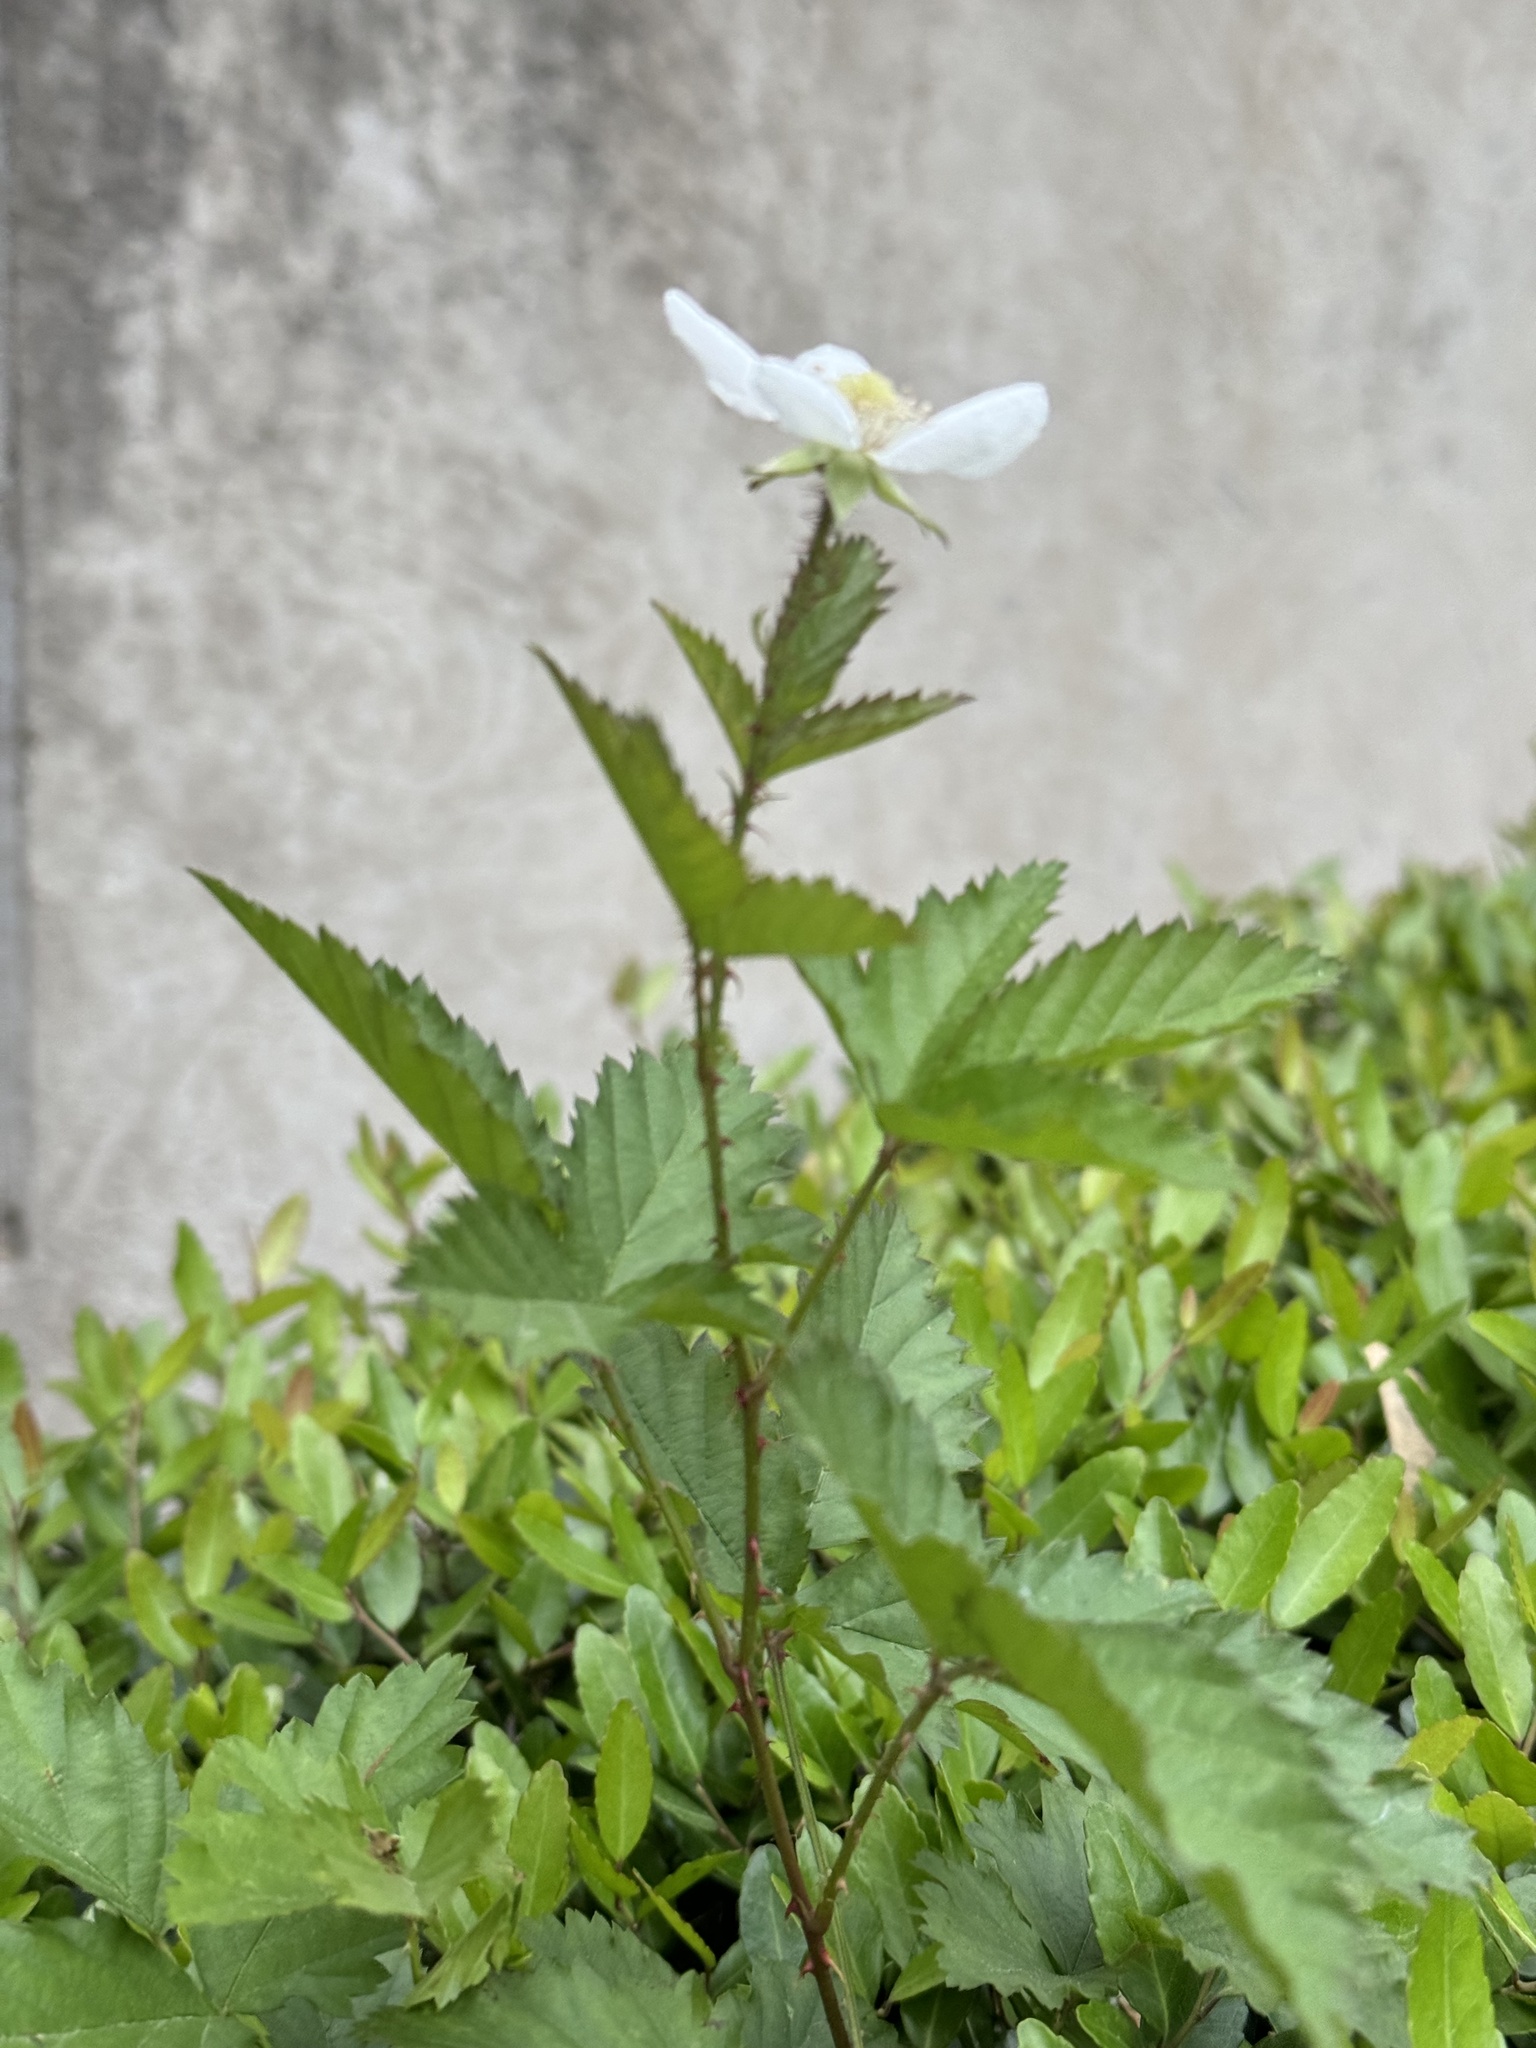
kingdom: Plantae
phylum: Tracheophyta
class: Magnoliopsida
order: Rosales
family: Rosaceae
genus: Rubus
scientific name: Rubus trivialis
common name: Southern dewberry
